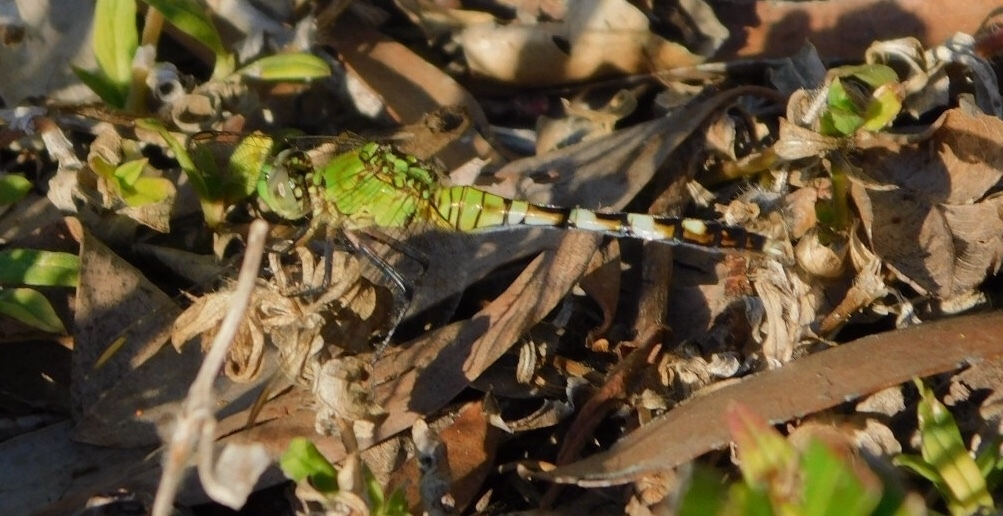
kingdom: Animalia
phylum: Arthropoda
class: Insecta
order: Odonata
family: Libellulidae
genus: Erythemis
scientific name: Erythemis simplicicollis
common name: Eastern pondhawk
